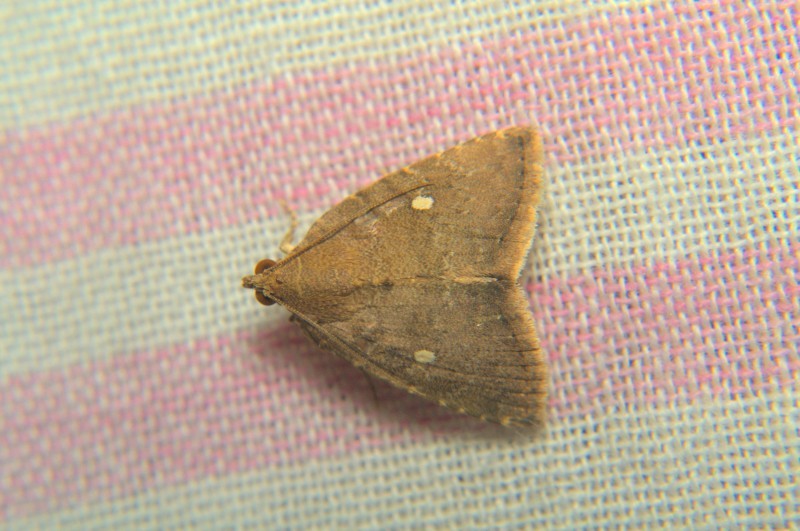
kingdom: Animalia
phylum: Arthropoda
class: Insecta
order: Lepidoptera
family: Noctuidae
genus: Amyna
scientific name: Amyna axis
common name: Cutworm
